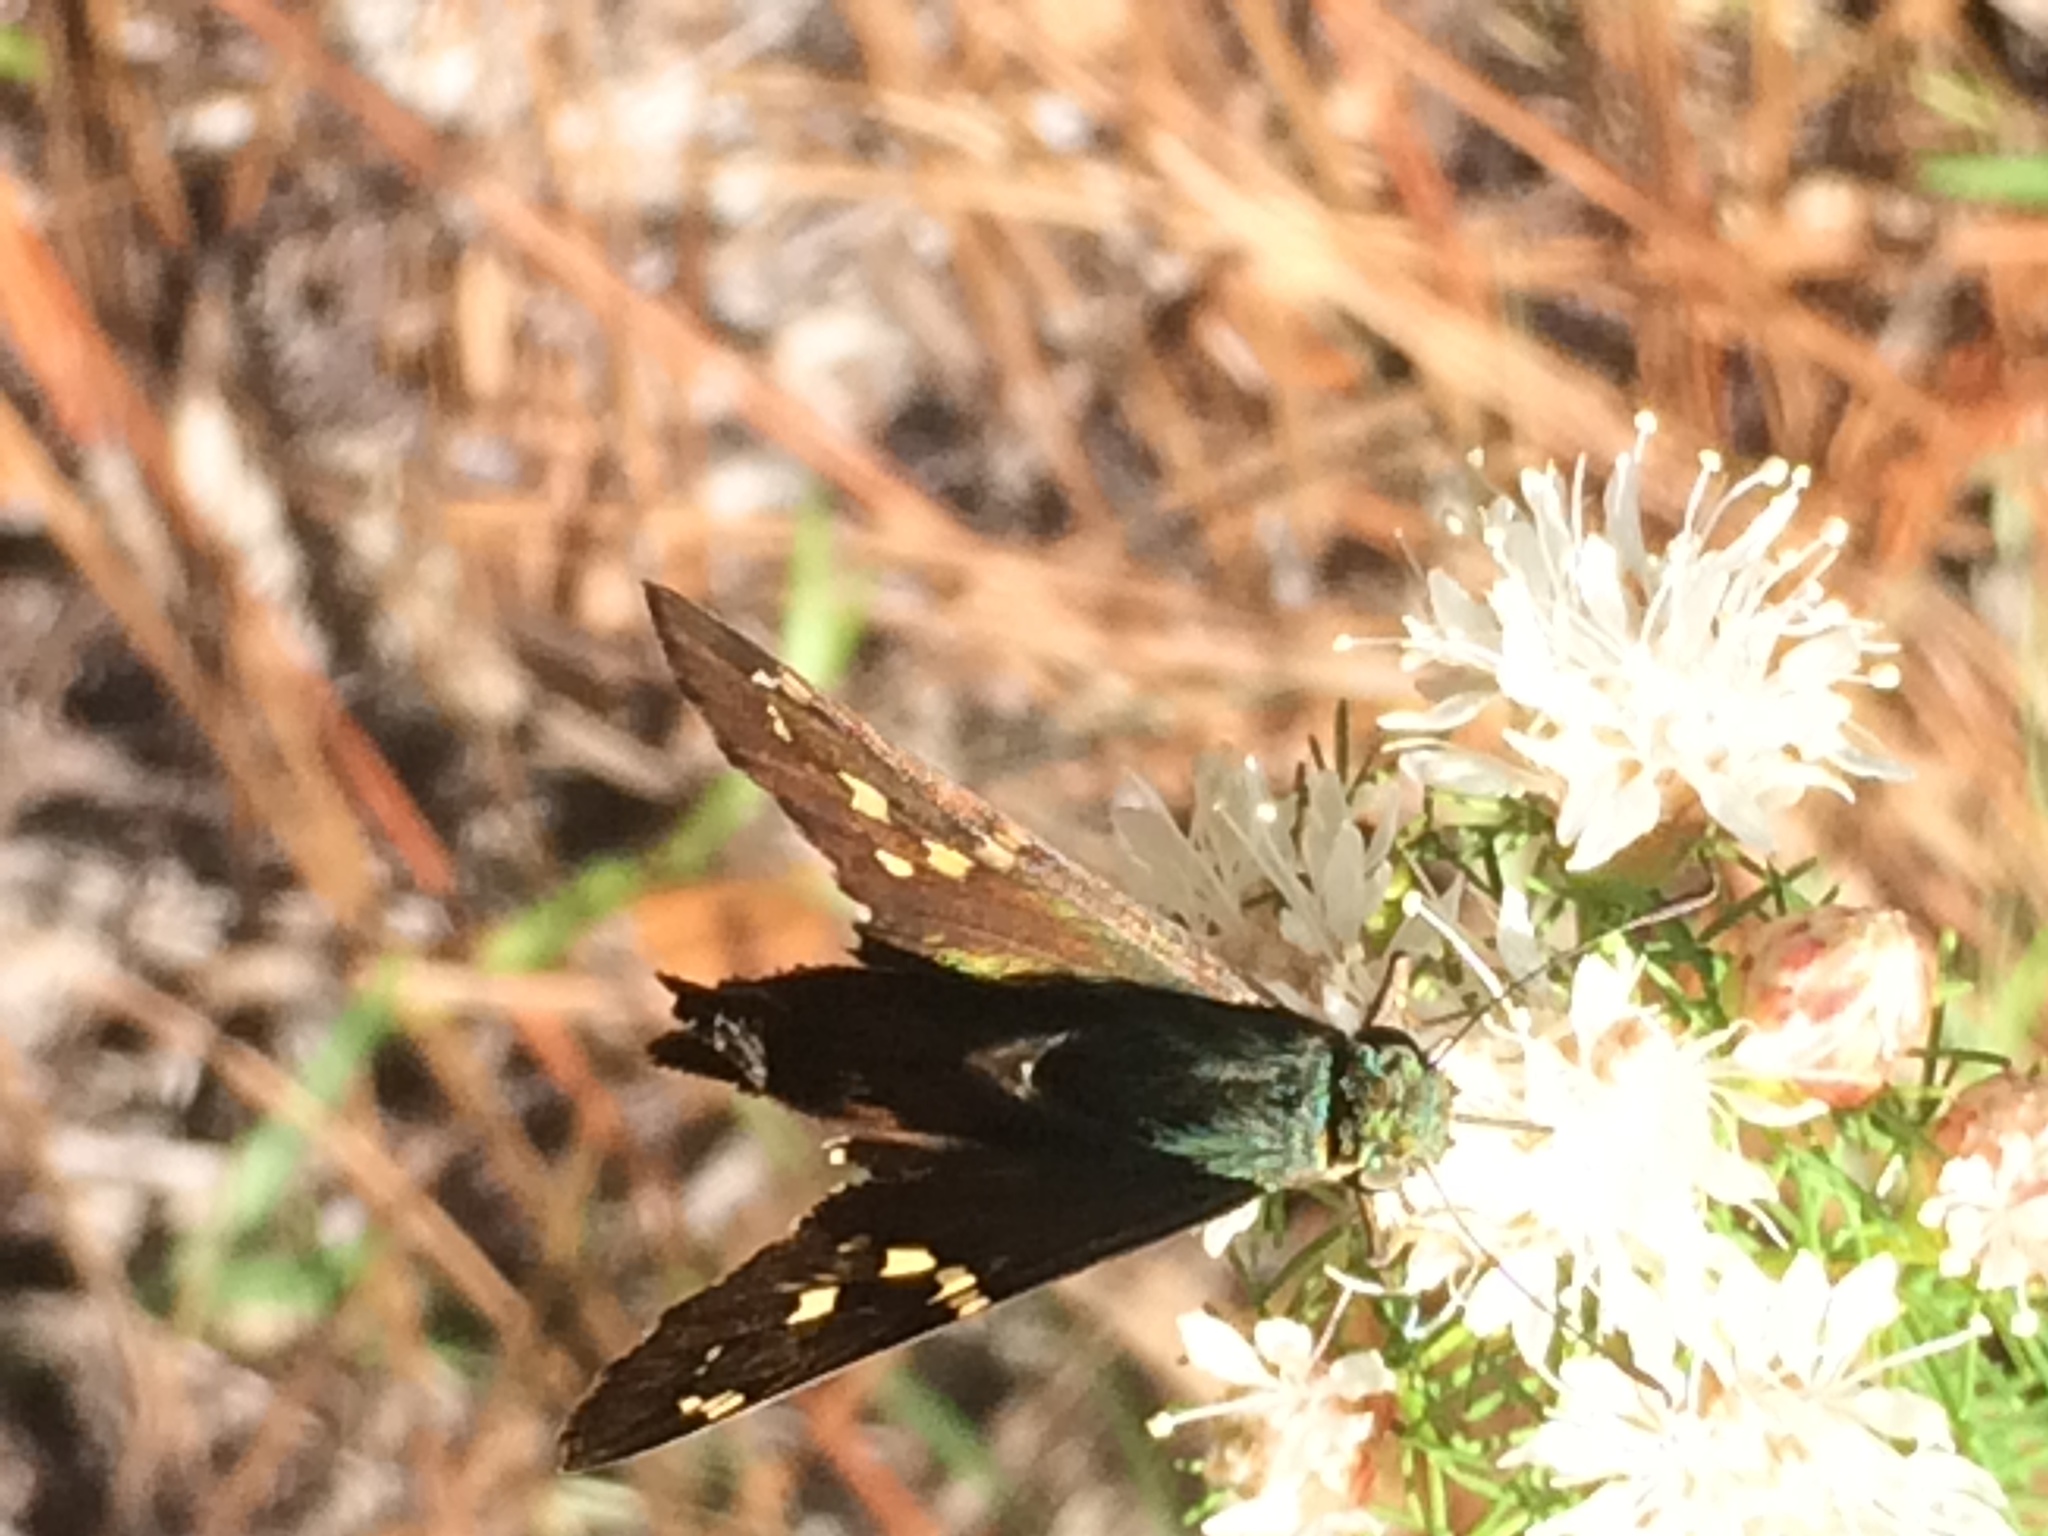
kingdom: Animalia
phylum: Arthropoda
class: Insecta
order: Lepidoptera
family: Hesperiidae
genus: Urbanus
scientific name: Urbanus proteus
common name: Long-tailed skipper
